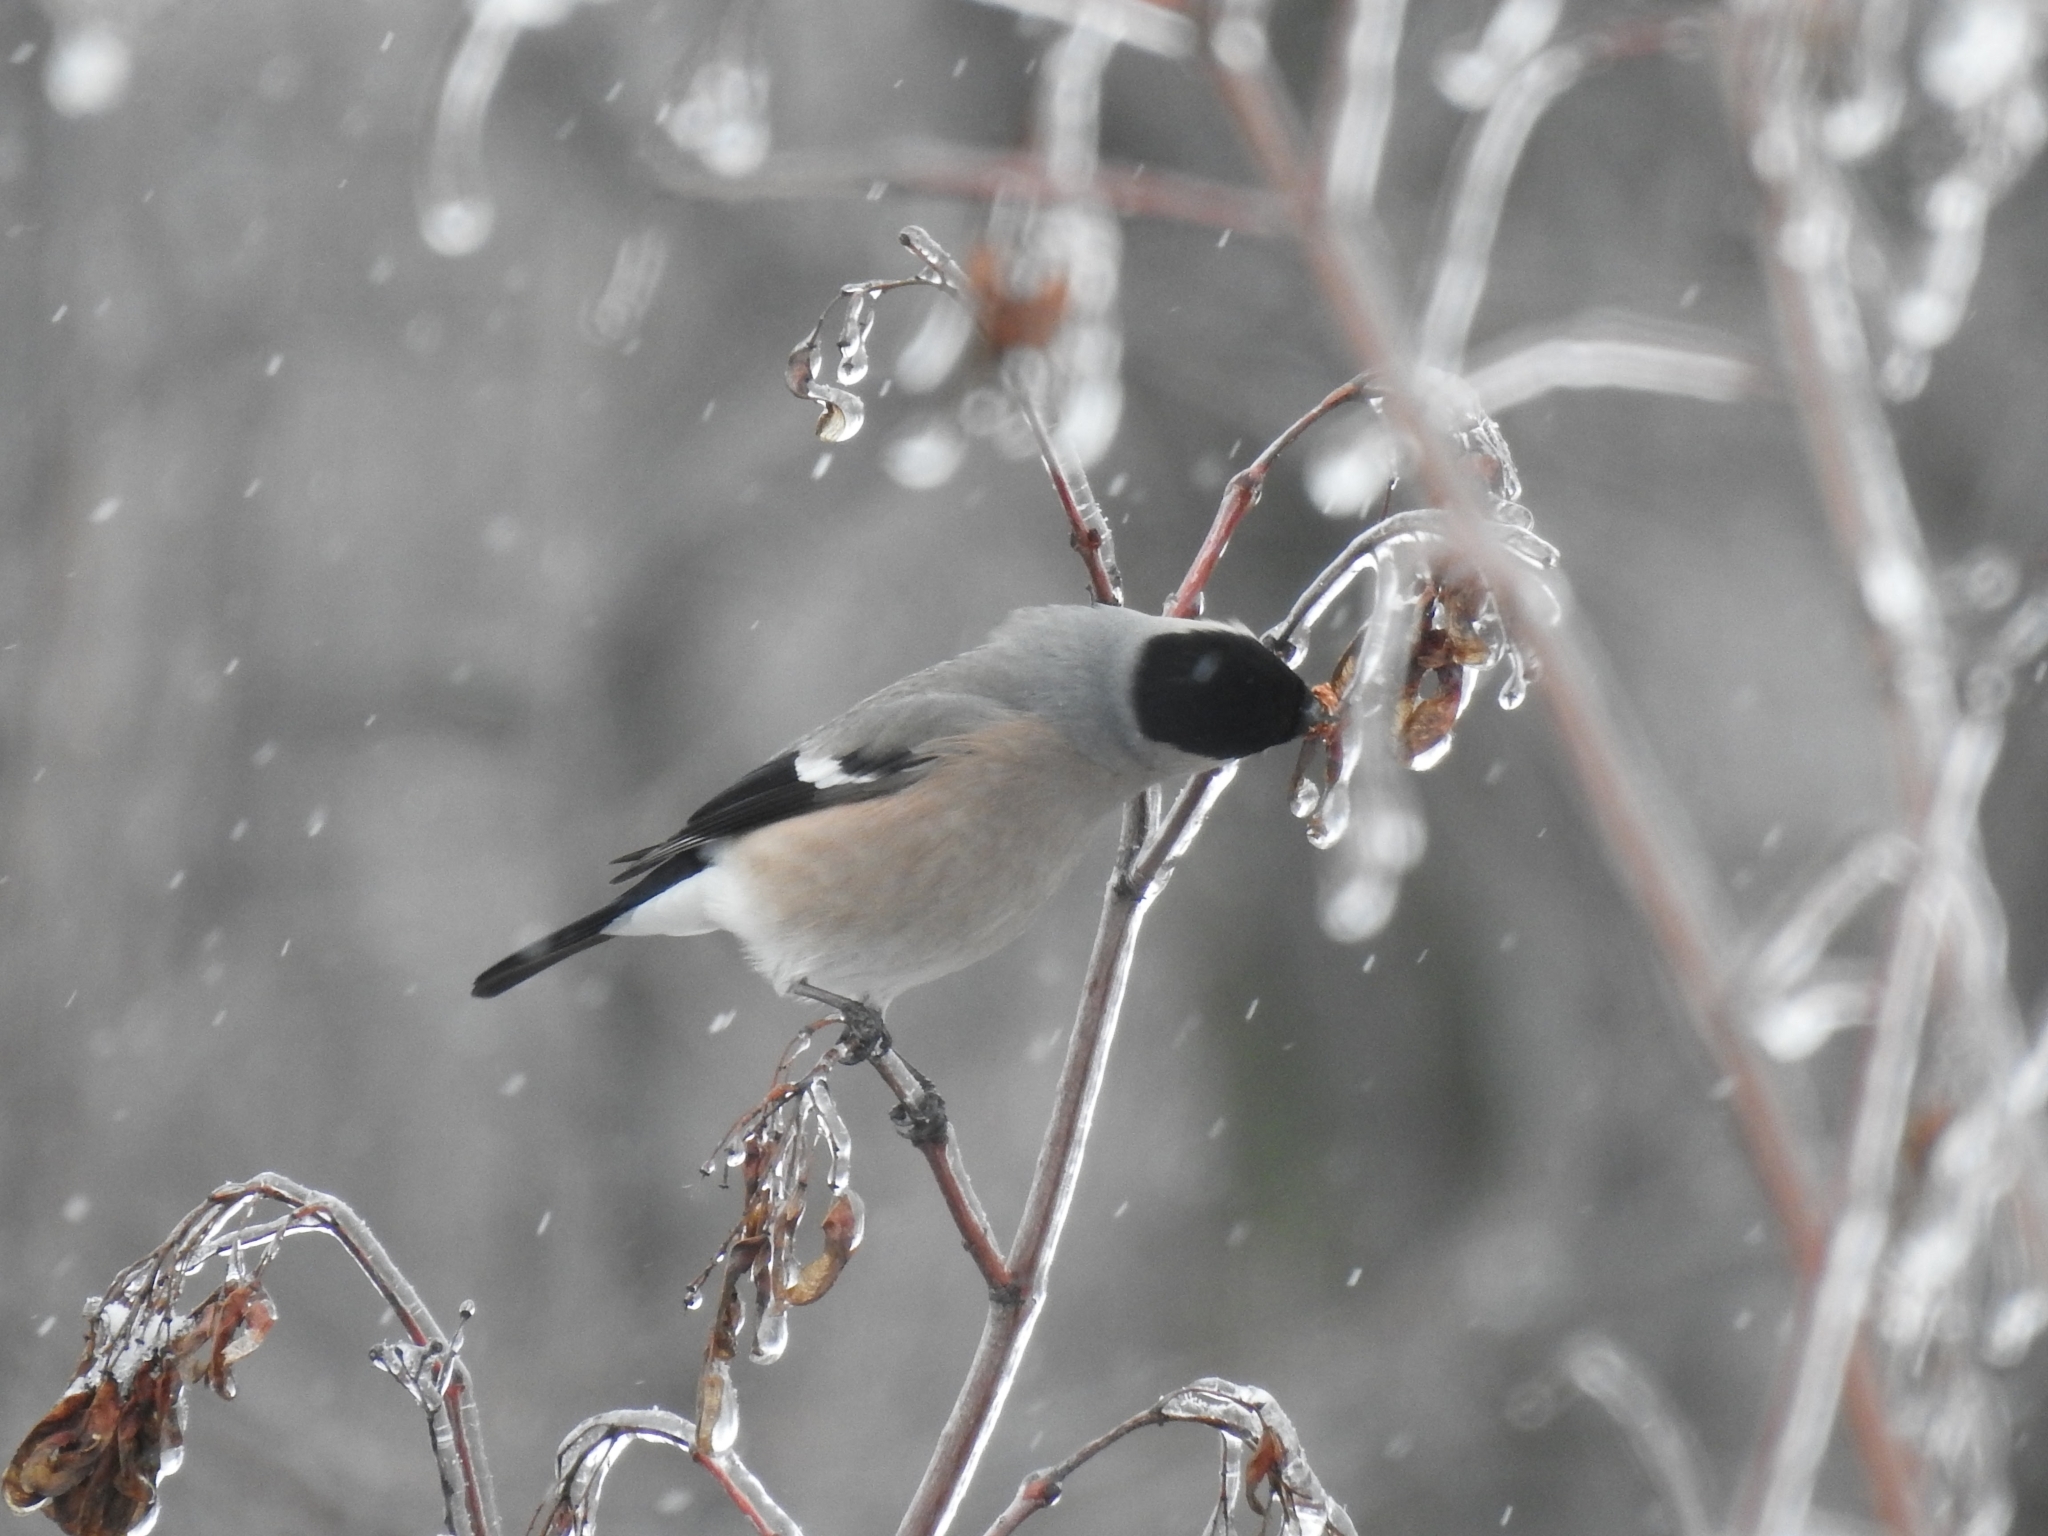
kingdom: Animalia
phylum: Chordata
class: Aves
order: Passeriformes
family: Fringillidae
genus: Pyrrhula
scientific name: Pyrrhula pyrrhula
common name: Eurasian bullfinch
